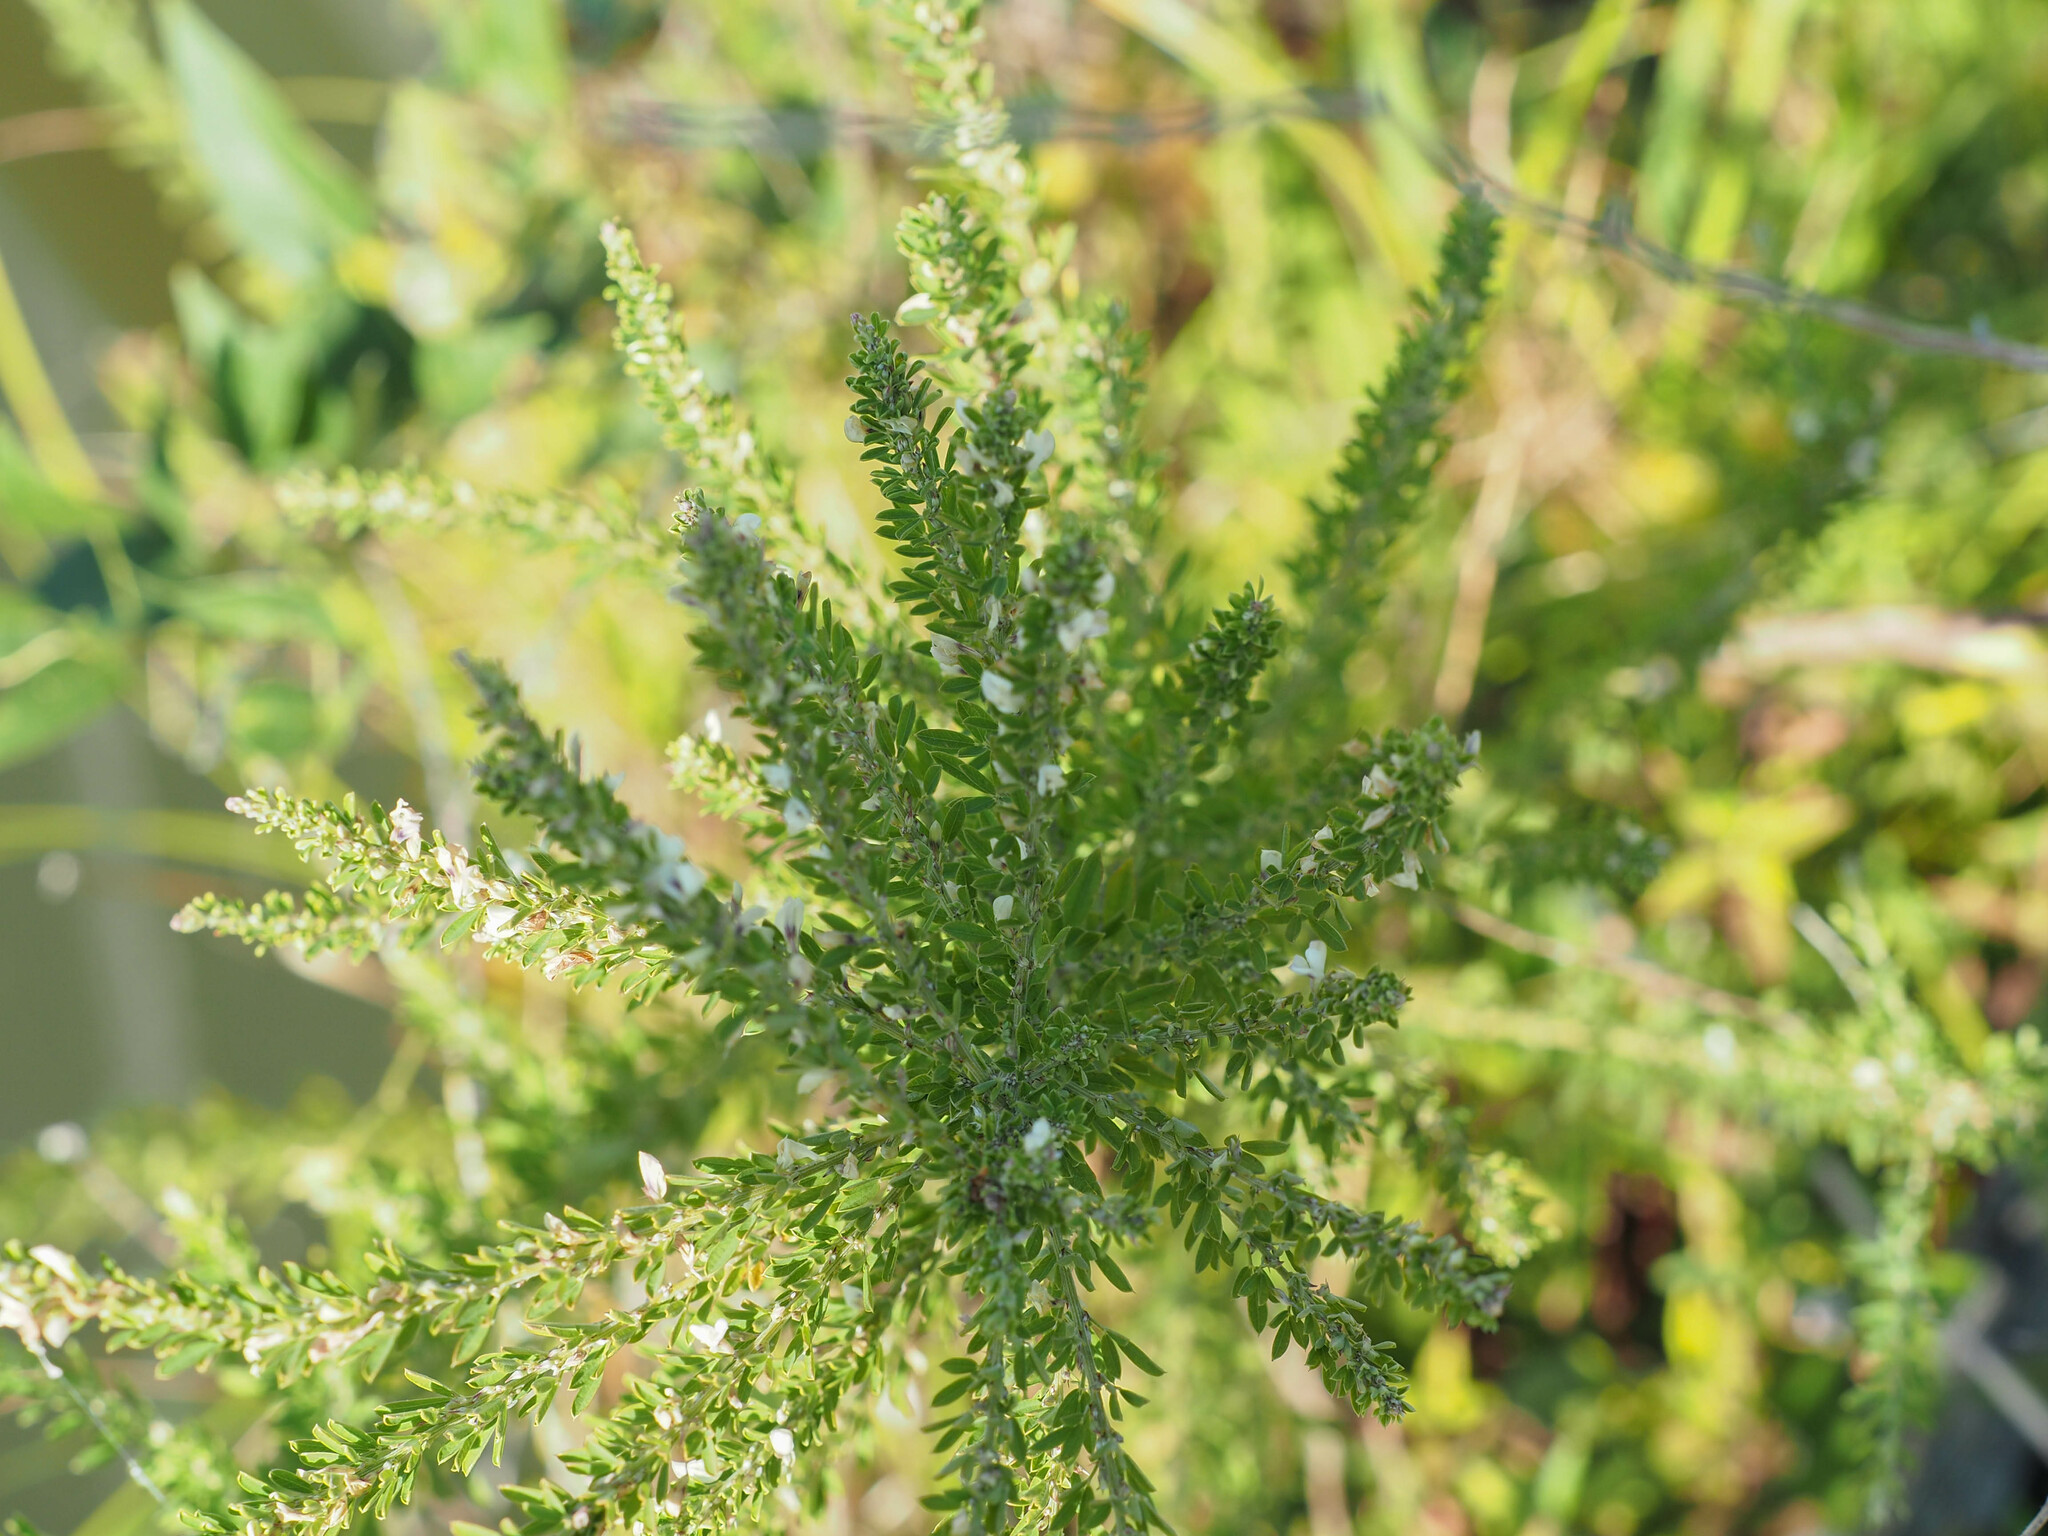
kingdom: Plantae
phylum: Tracheophyta
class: Magnoliopsida
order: Fabales
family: Fabaceae
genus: Lespedeza
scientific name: Lespedeza cuneata
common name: Chinese bush-clover
